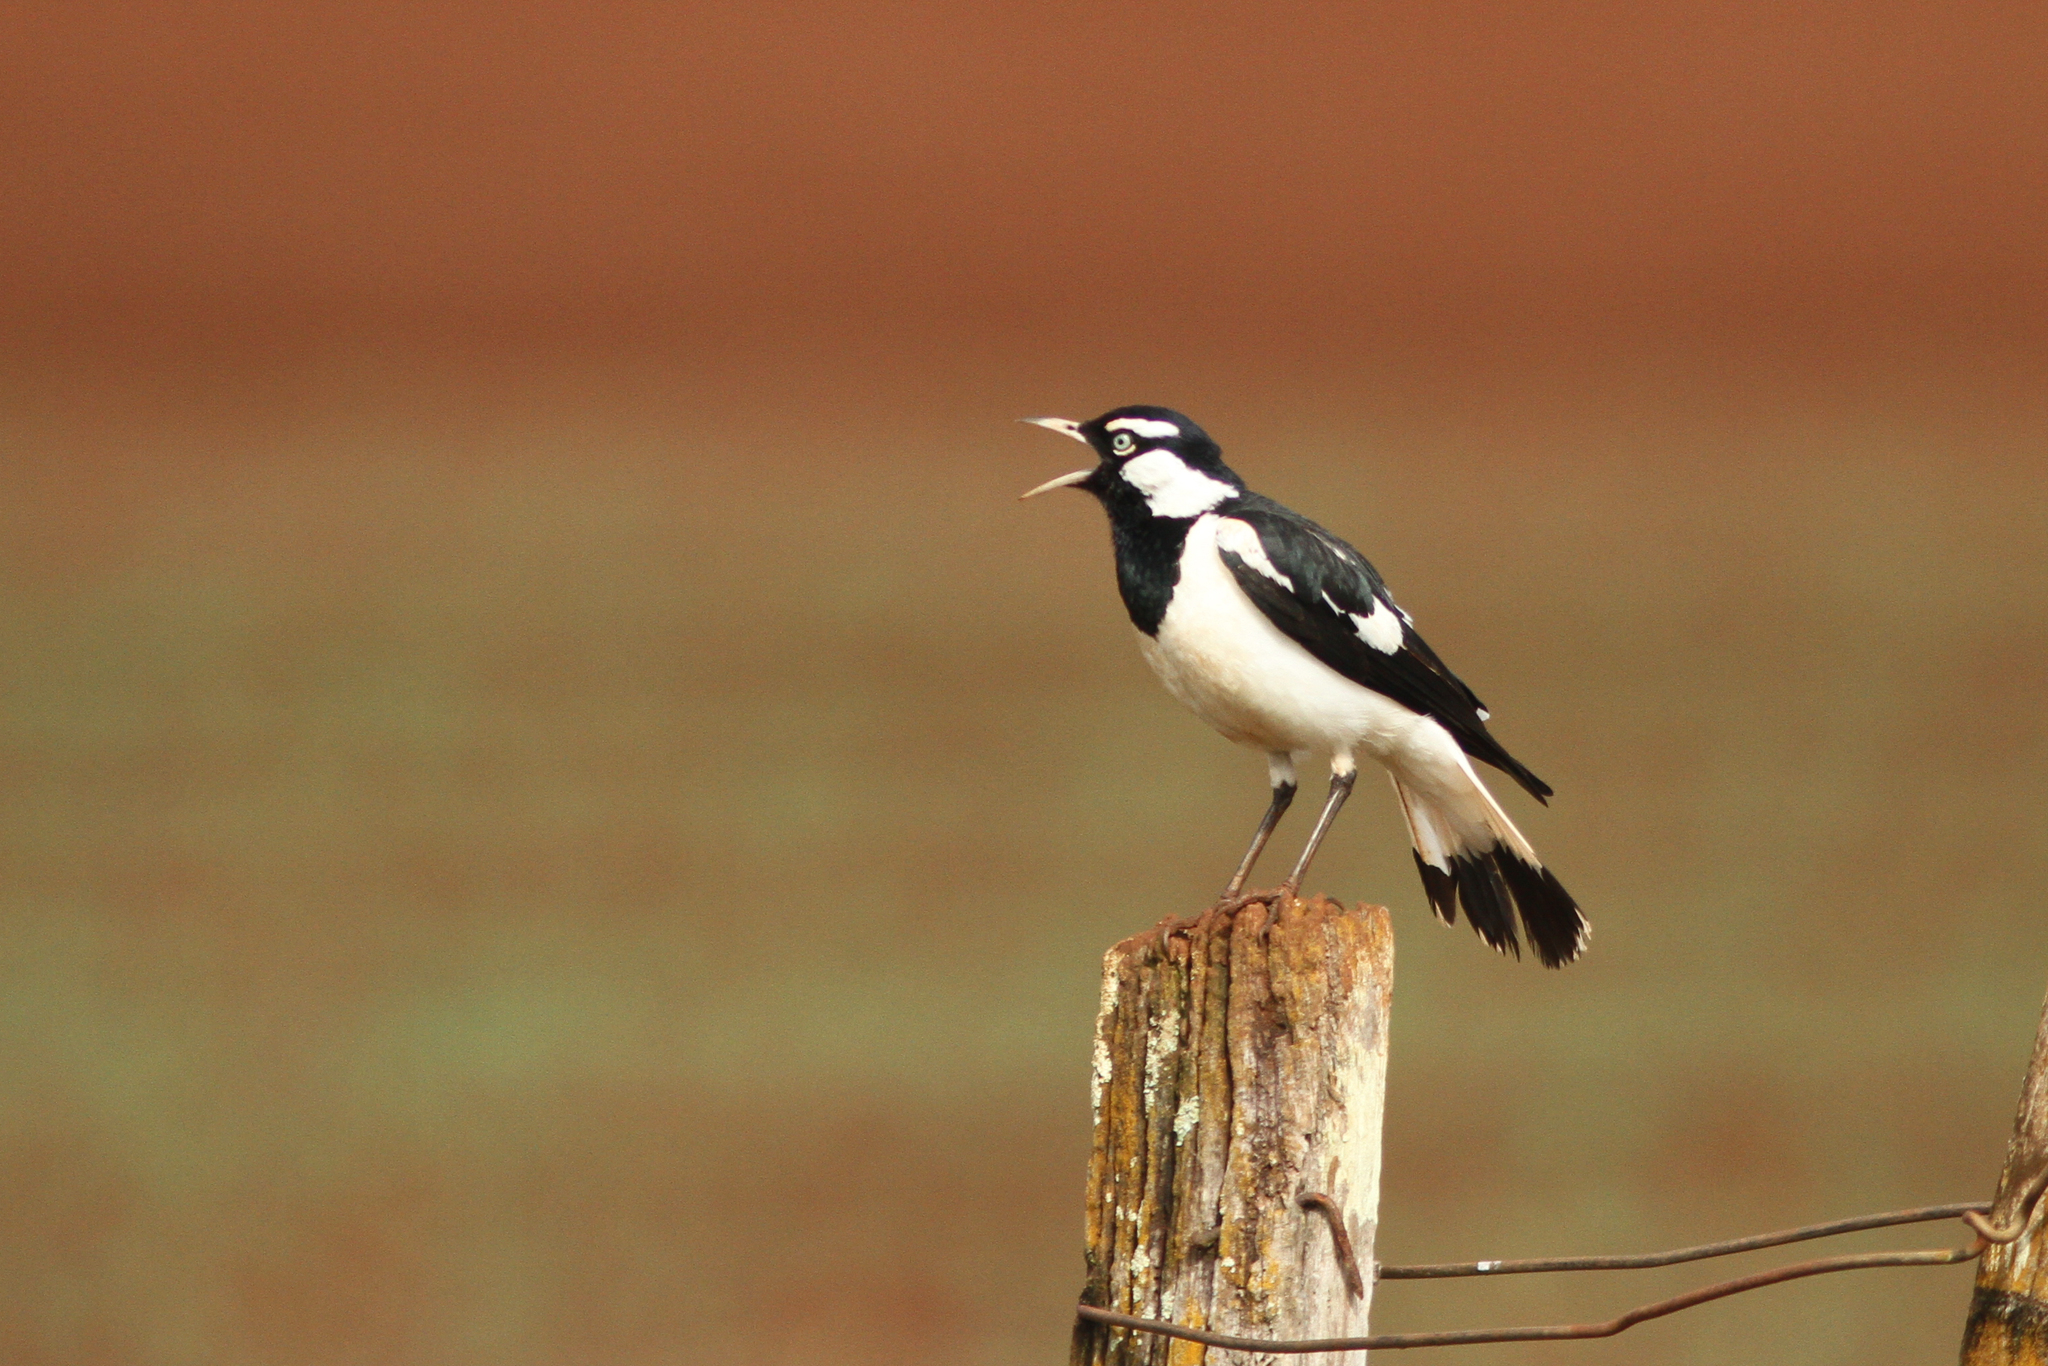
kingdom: Animalia
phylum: Chordata
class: Aves
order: Passeriformes
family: Monarchidae
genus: Grallina
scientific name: Grallina cyanoleuca
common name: Magpie-lark
